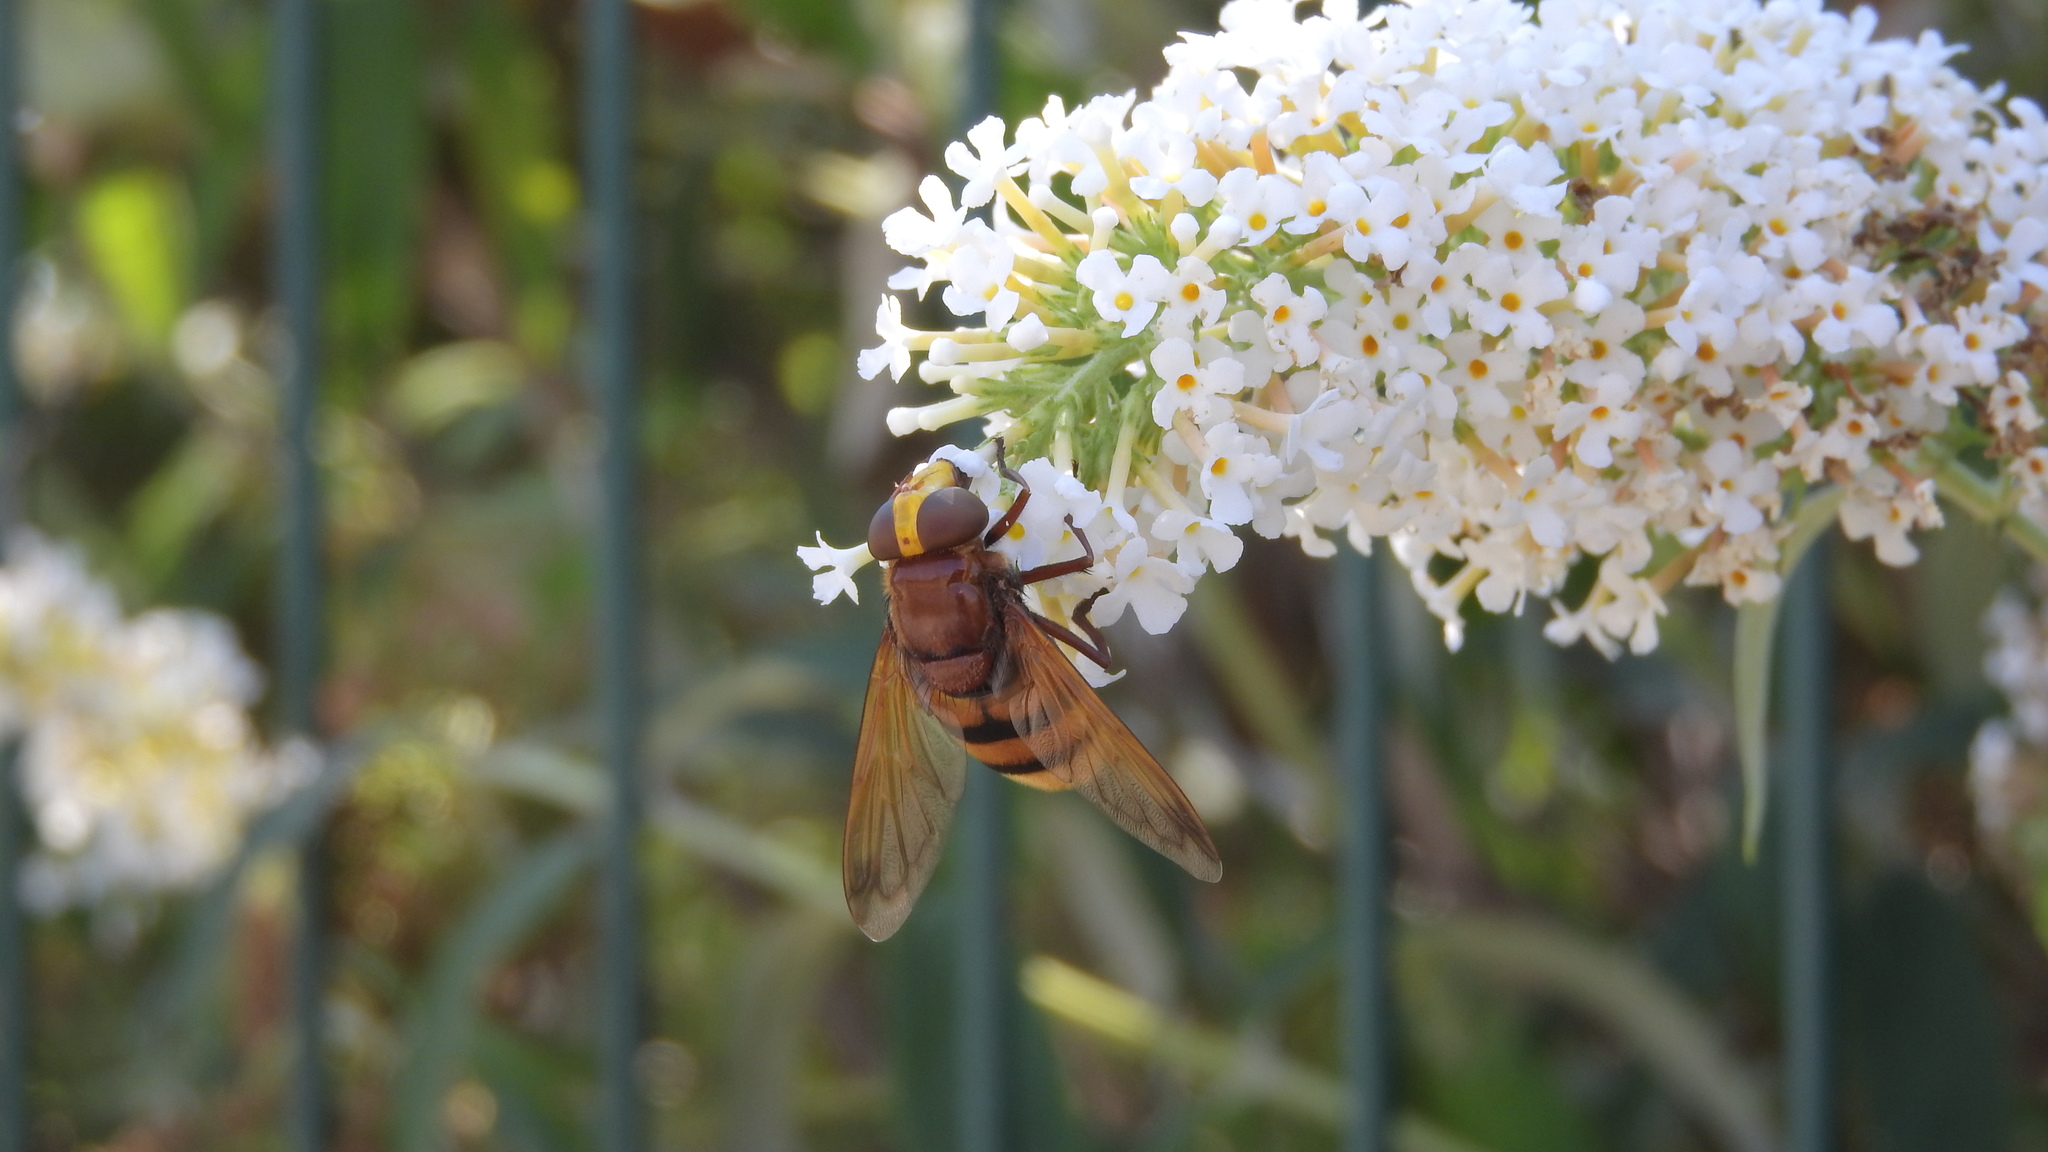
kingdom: Animalia
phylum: Arthropoda
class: Insecta
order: Diptera
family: Syrphidae
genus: Volucella
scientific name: Volucella zonaria
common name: Hornet hoverfly
